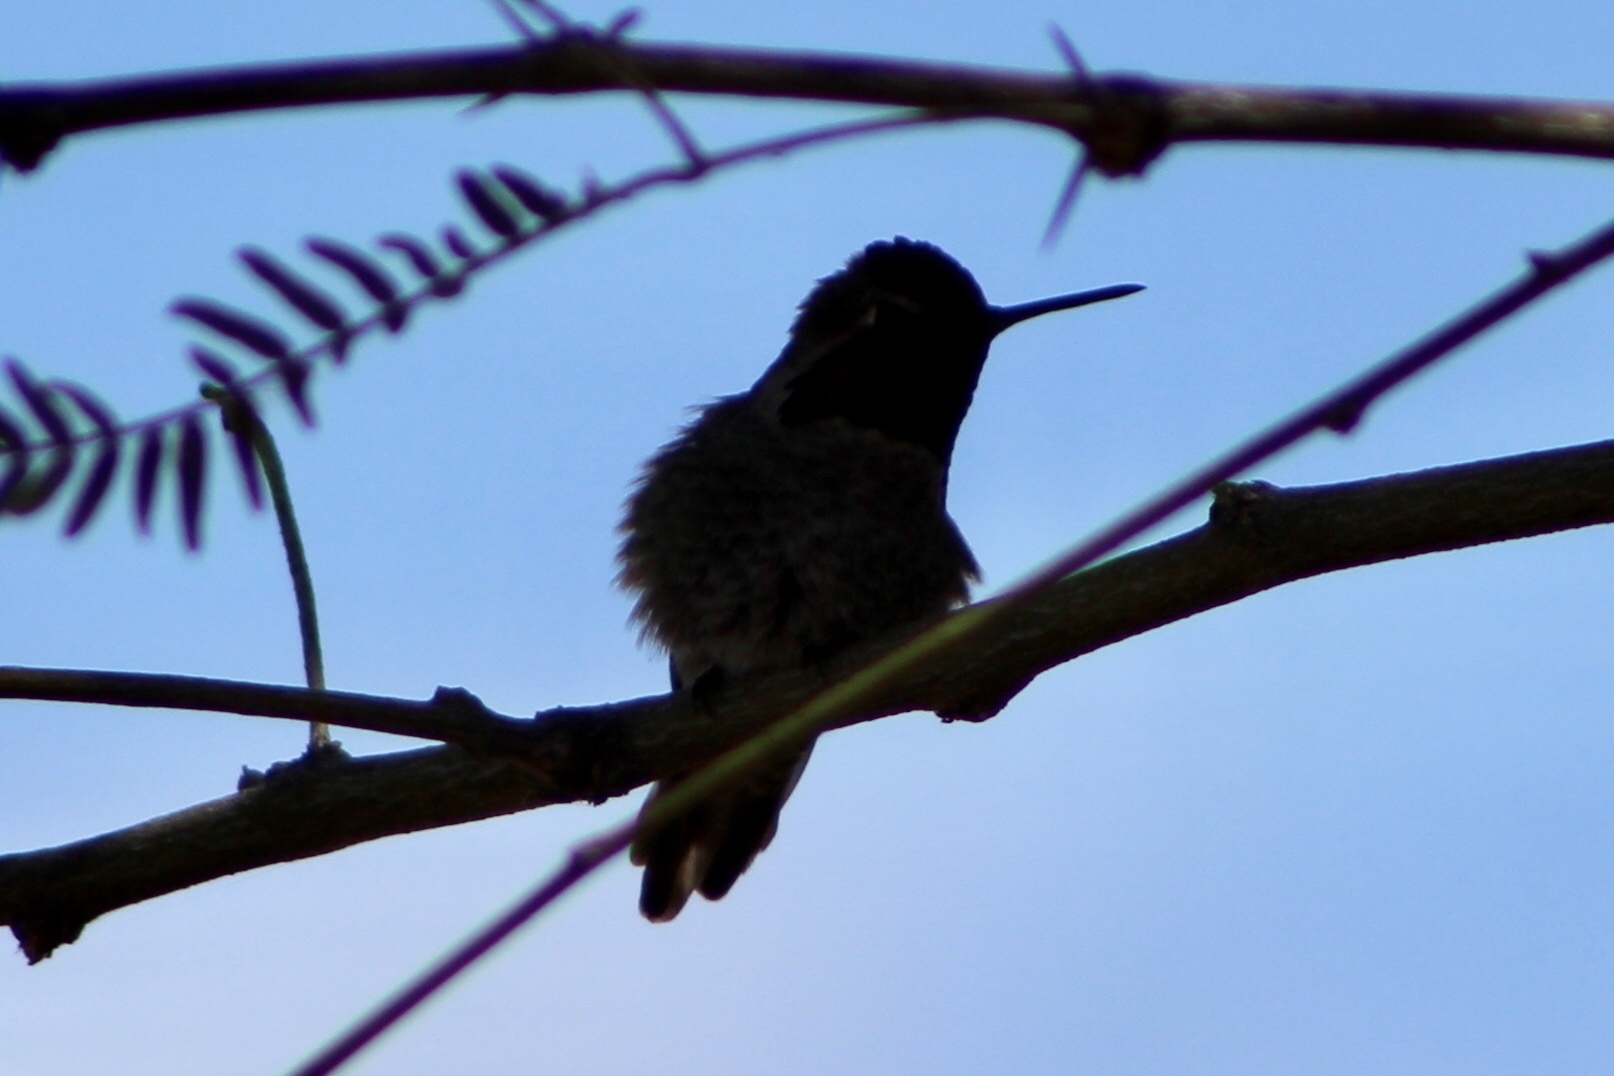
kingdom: Animalia
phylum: Chordata
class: Aves
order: Apodiformes
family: Trochilidae
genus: Calypte
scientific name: Calypte anna
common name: Anna's hummingbird
